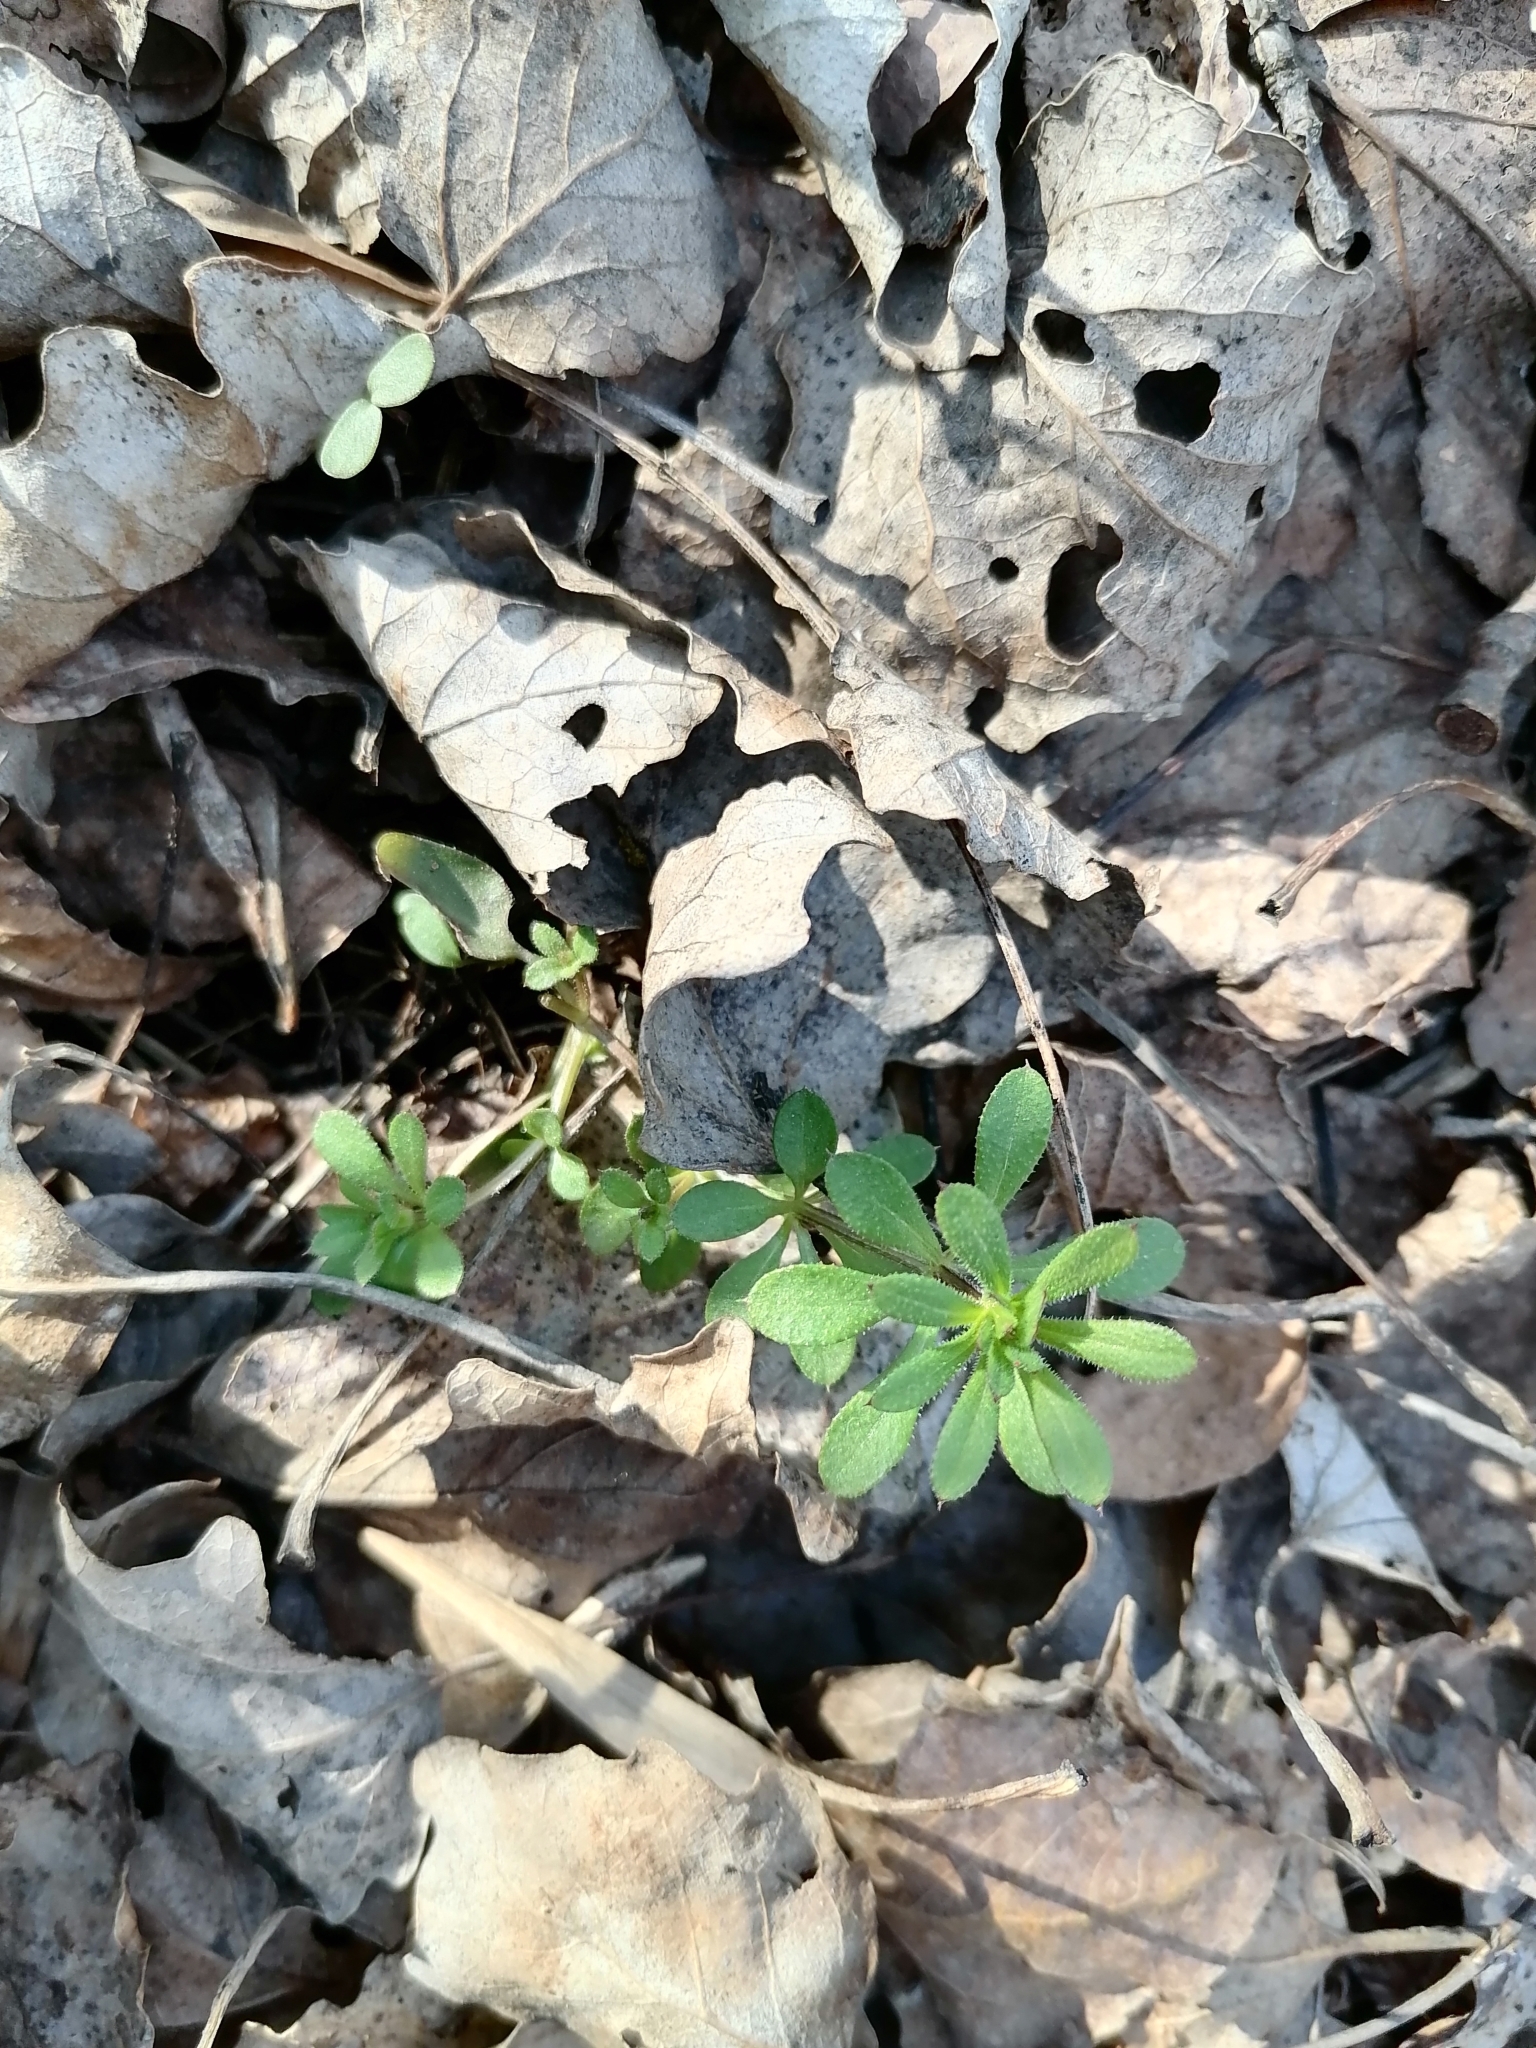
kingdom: Plantae
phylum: Tracheophyta
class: Magnoliopsida
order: Gentianales
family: Rubiaceae
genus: Galium
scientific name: Galium aparine
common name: Cleavers
